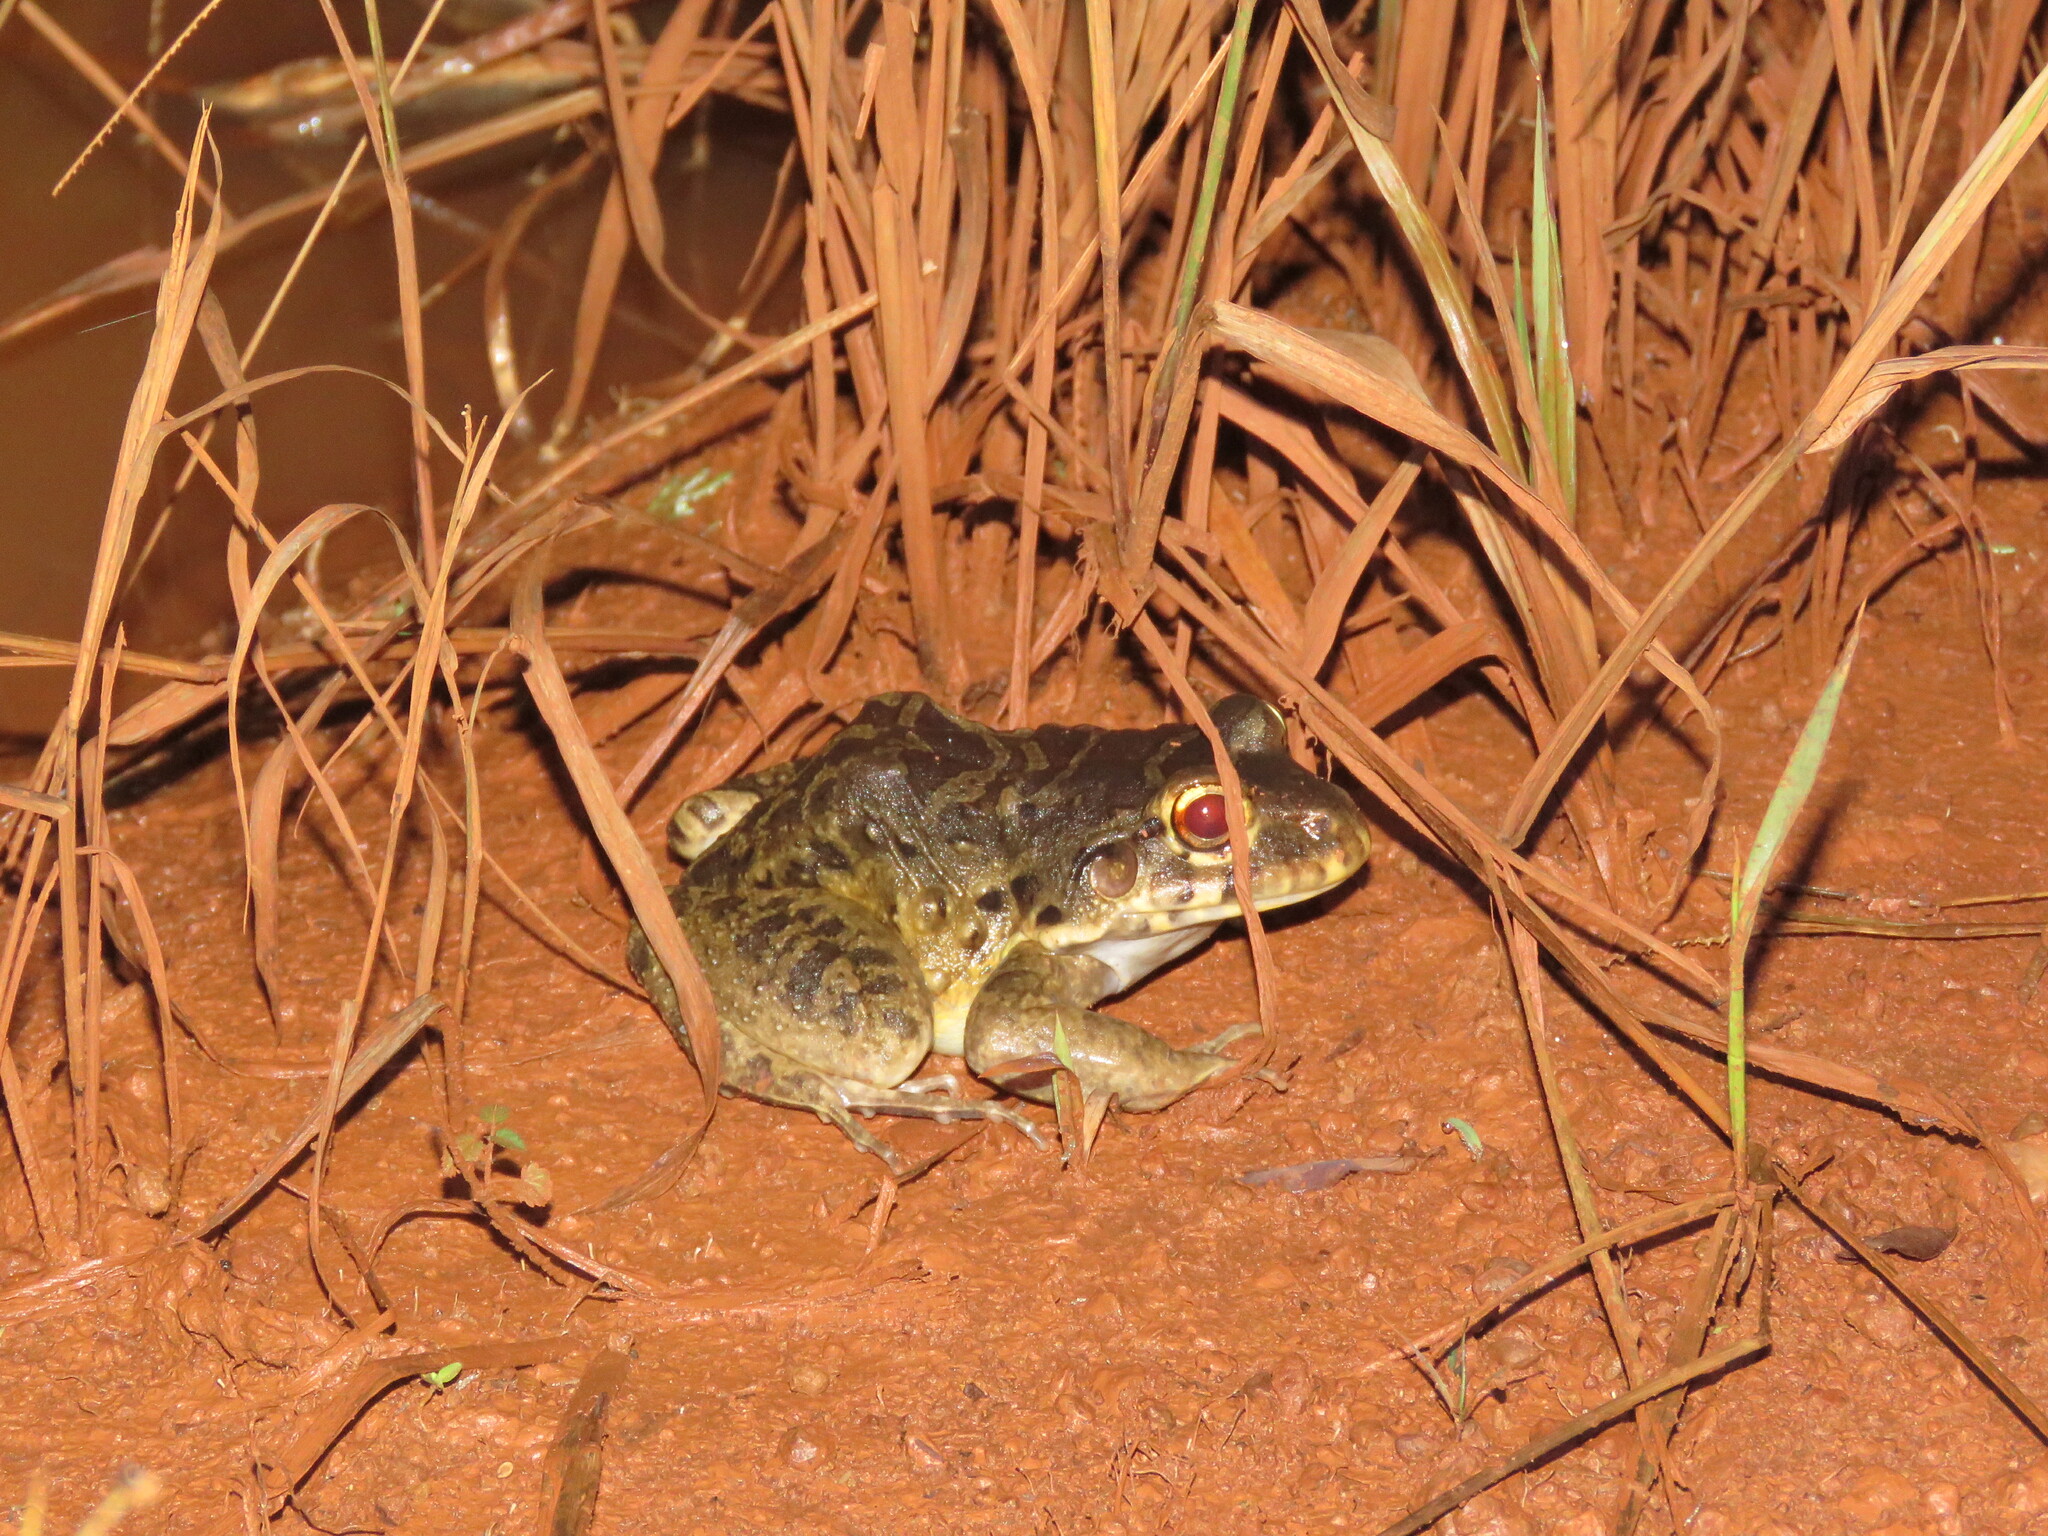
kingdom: Animalia
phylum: Chordata
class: Amphibia
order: Anura
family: Leptodactylidae
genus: Leptodactylus
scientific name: Leptodactylus knudseni
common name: Knudsen's frog
